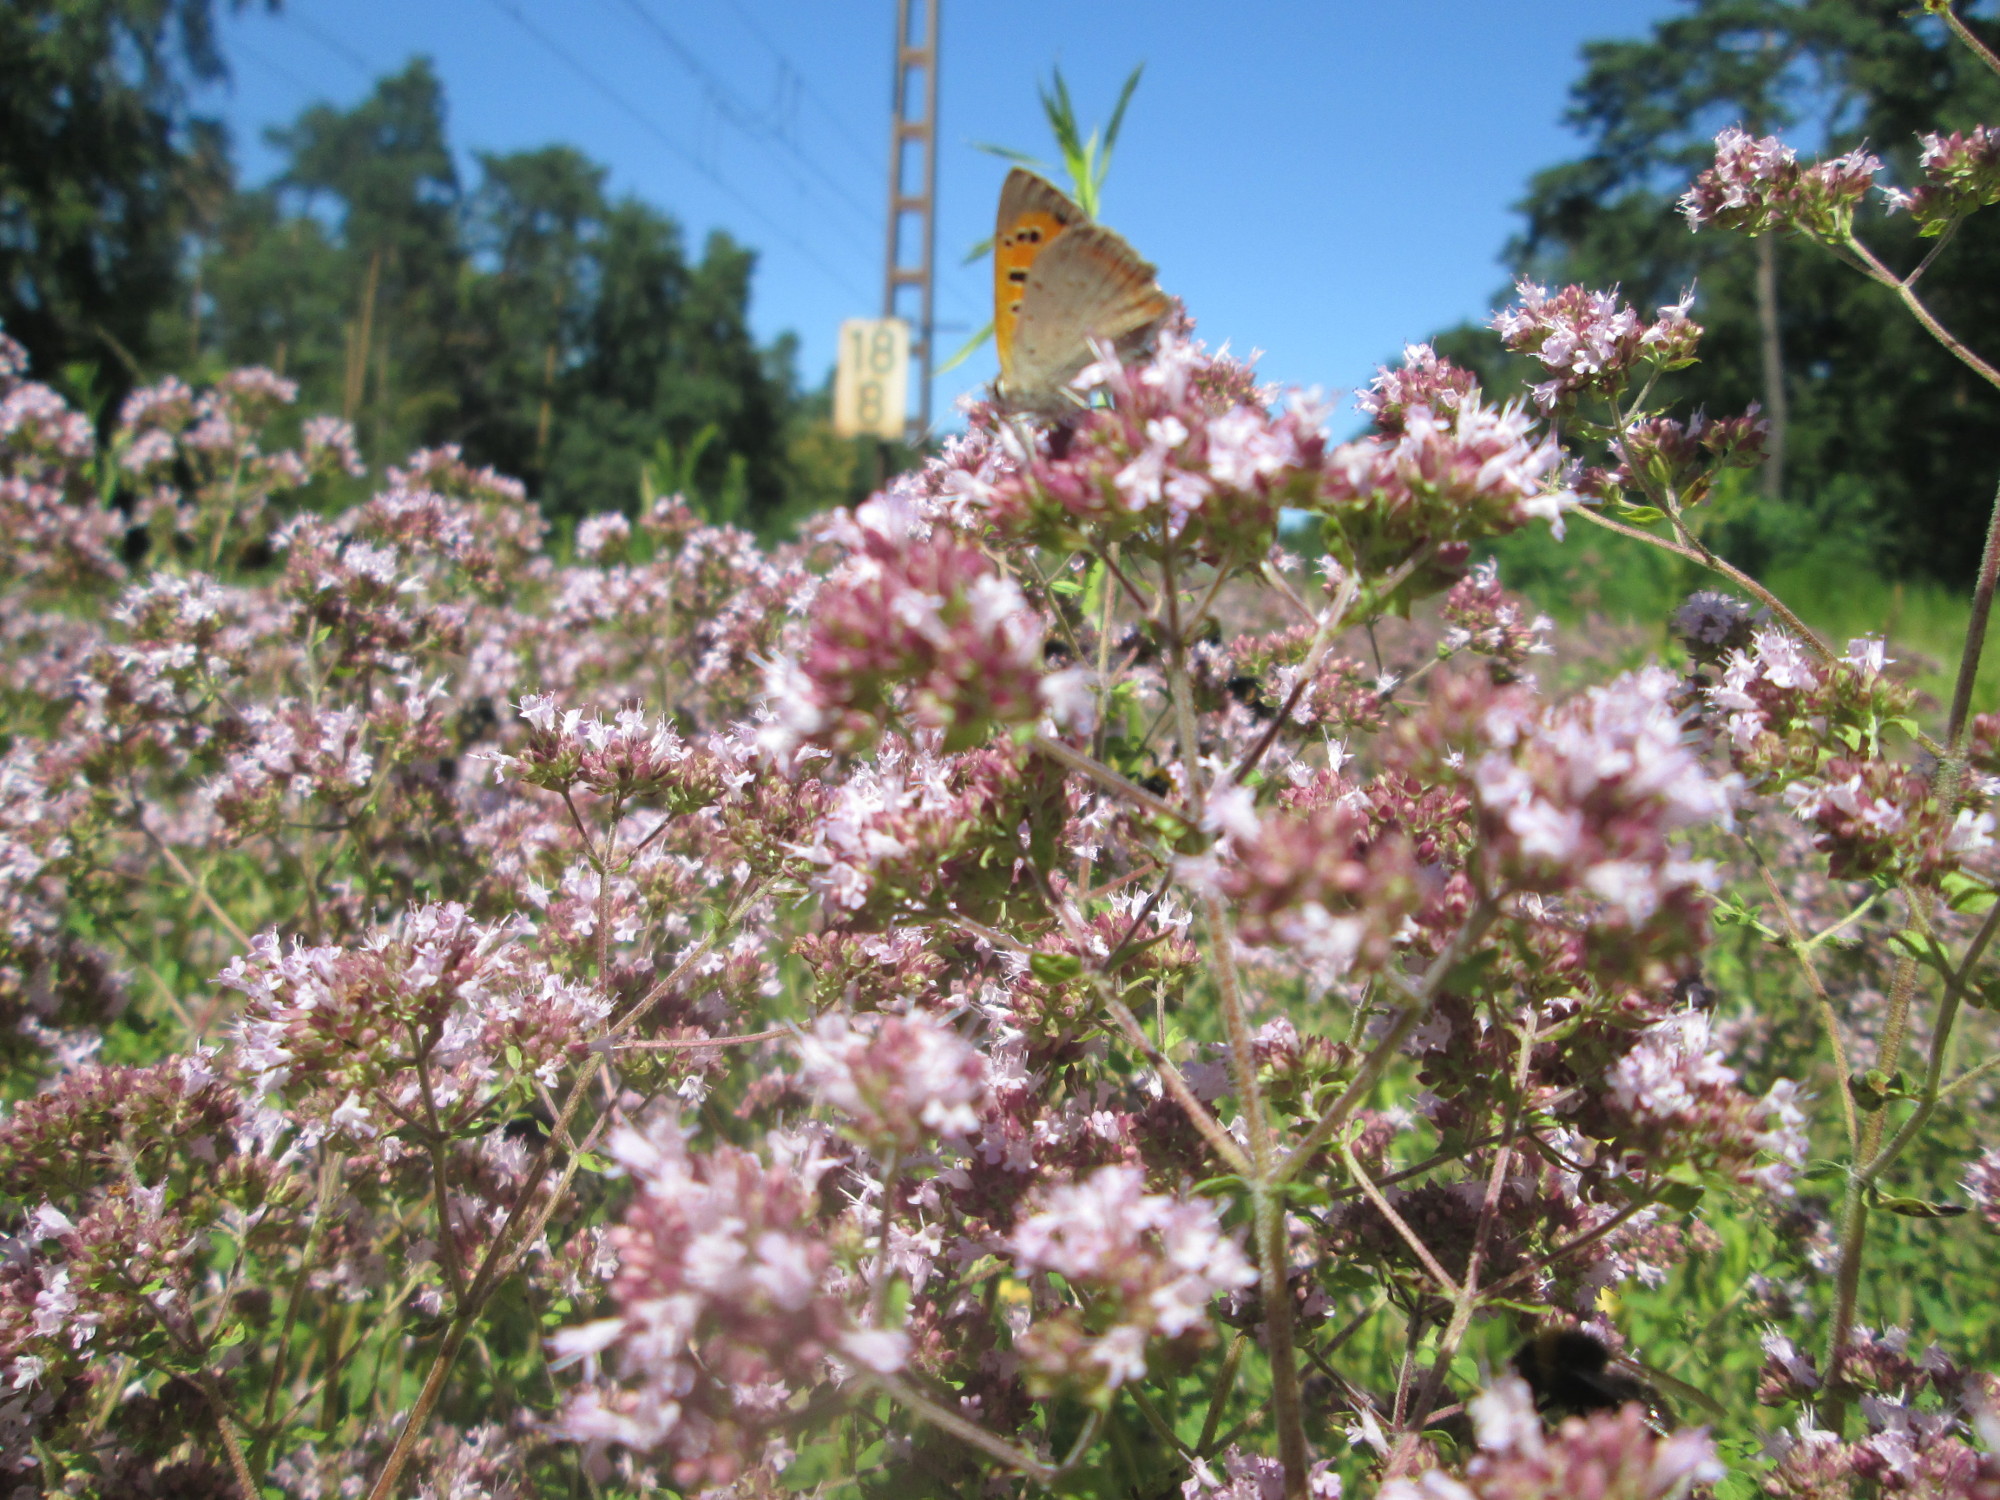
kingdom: Plantae
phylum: Tracheophyta
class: Magnoliopsida
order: Lamiales
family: Lamiaceae
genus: Origanum
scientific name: Origanum vulgare
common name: Wild marjoram
